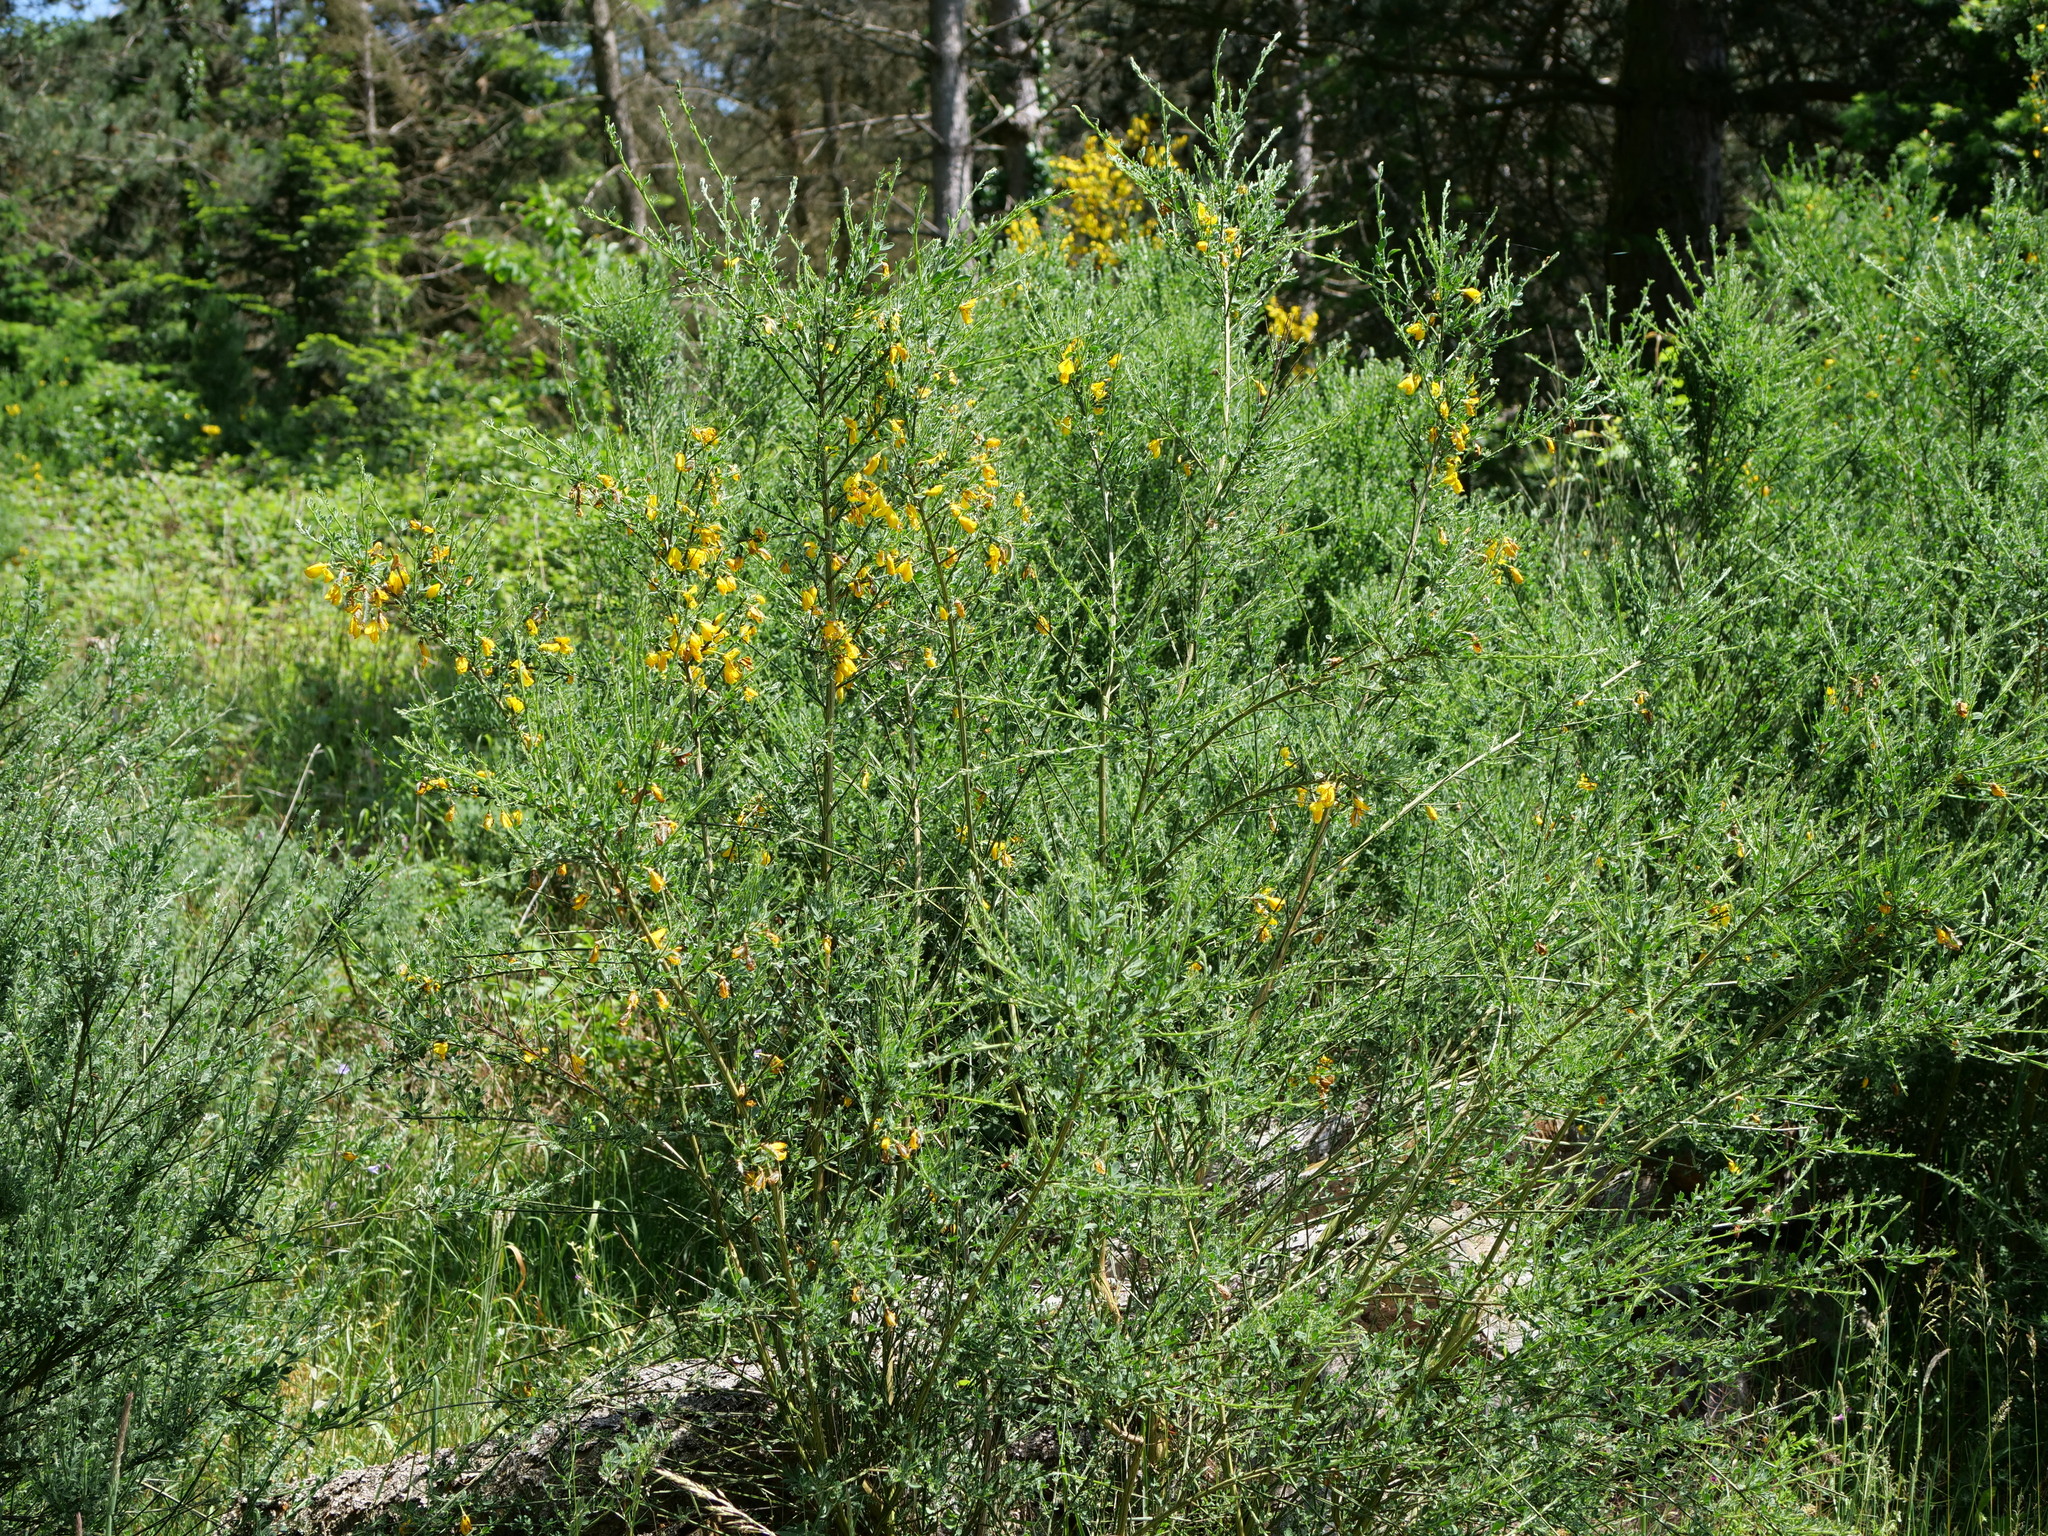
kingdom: Plantae
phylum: Tracheophyta
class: Magnoliopsida
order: Fabales
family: Fabaceae
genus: Cytisus
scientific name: Cytisus scoparius
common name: Scotch broom
